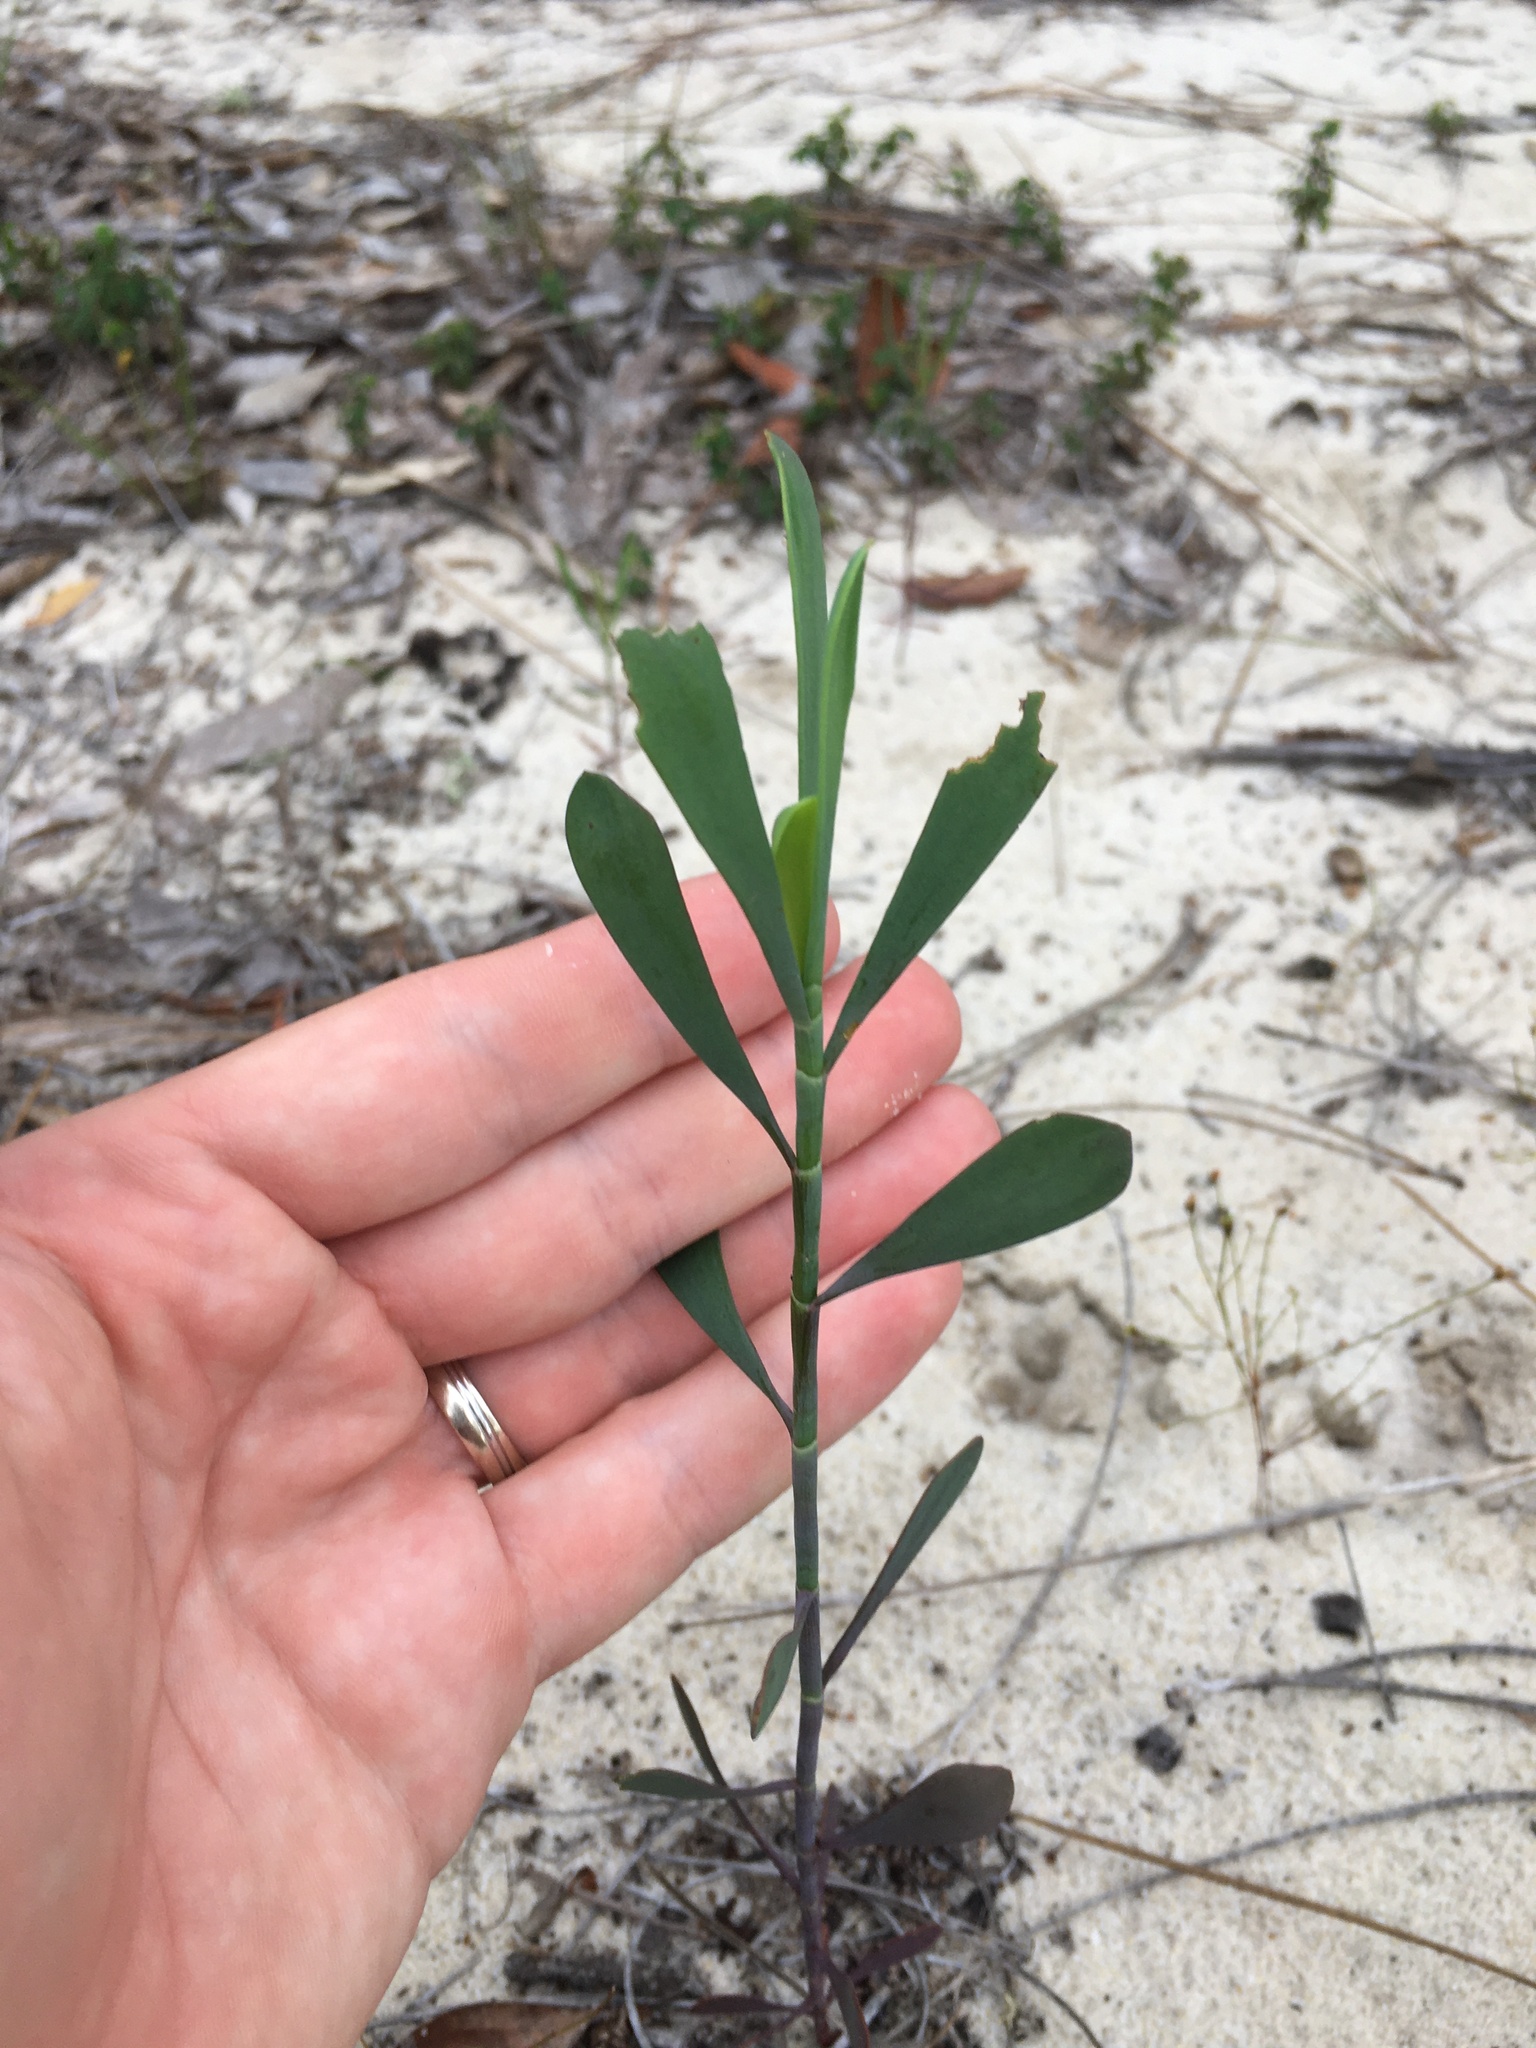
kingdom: Plantae
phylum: Tracheophyta
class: Magnoliopsida
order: Caryophyllales
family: Polygonaceae
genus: Polygonella
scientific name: Polygonella gracilis
